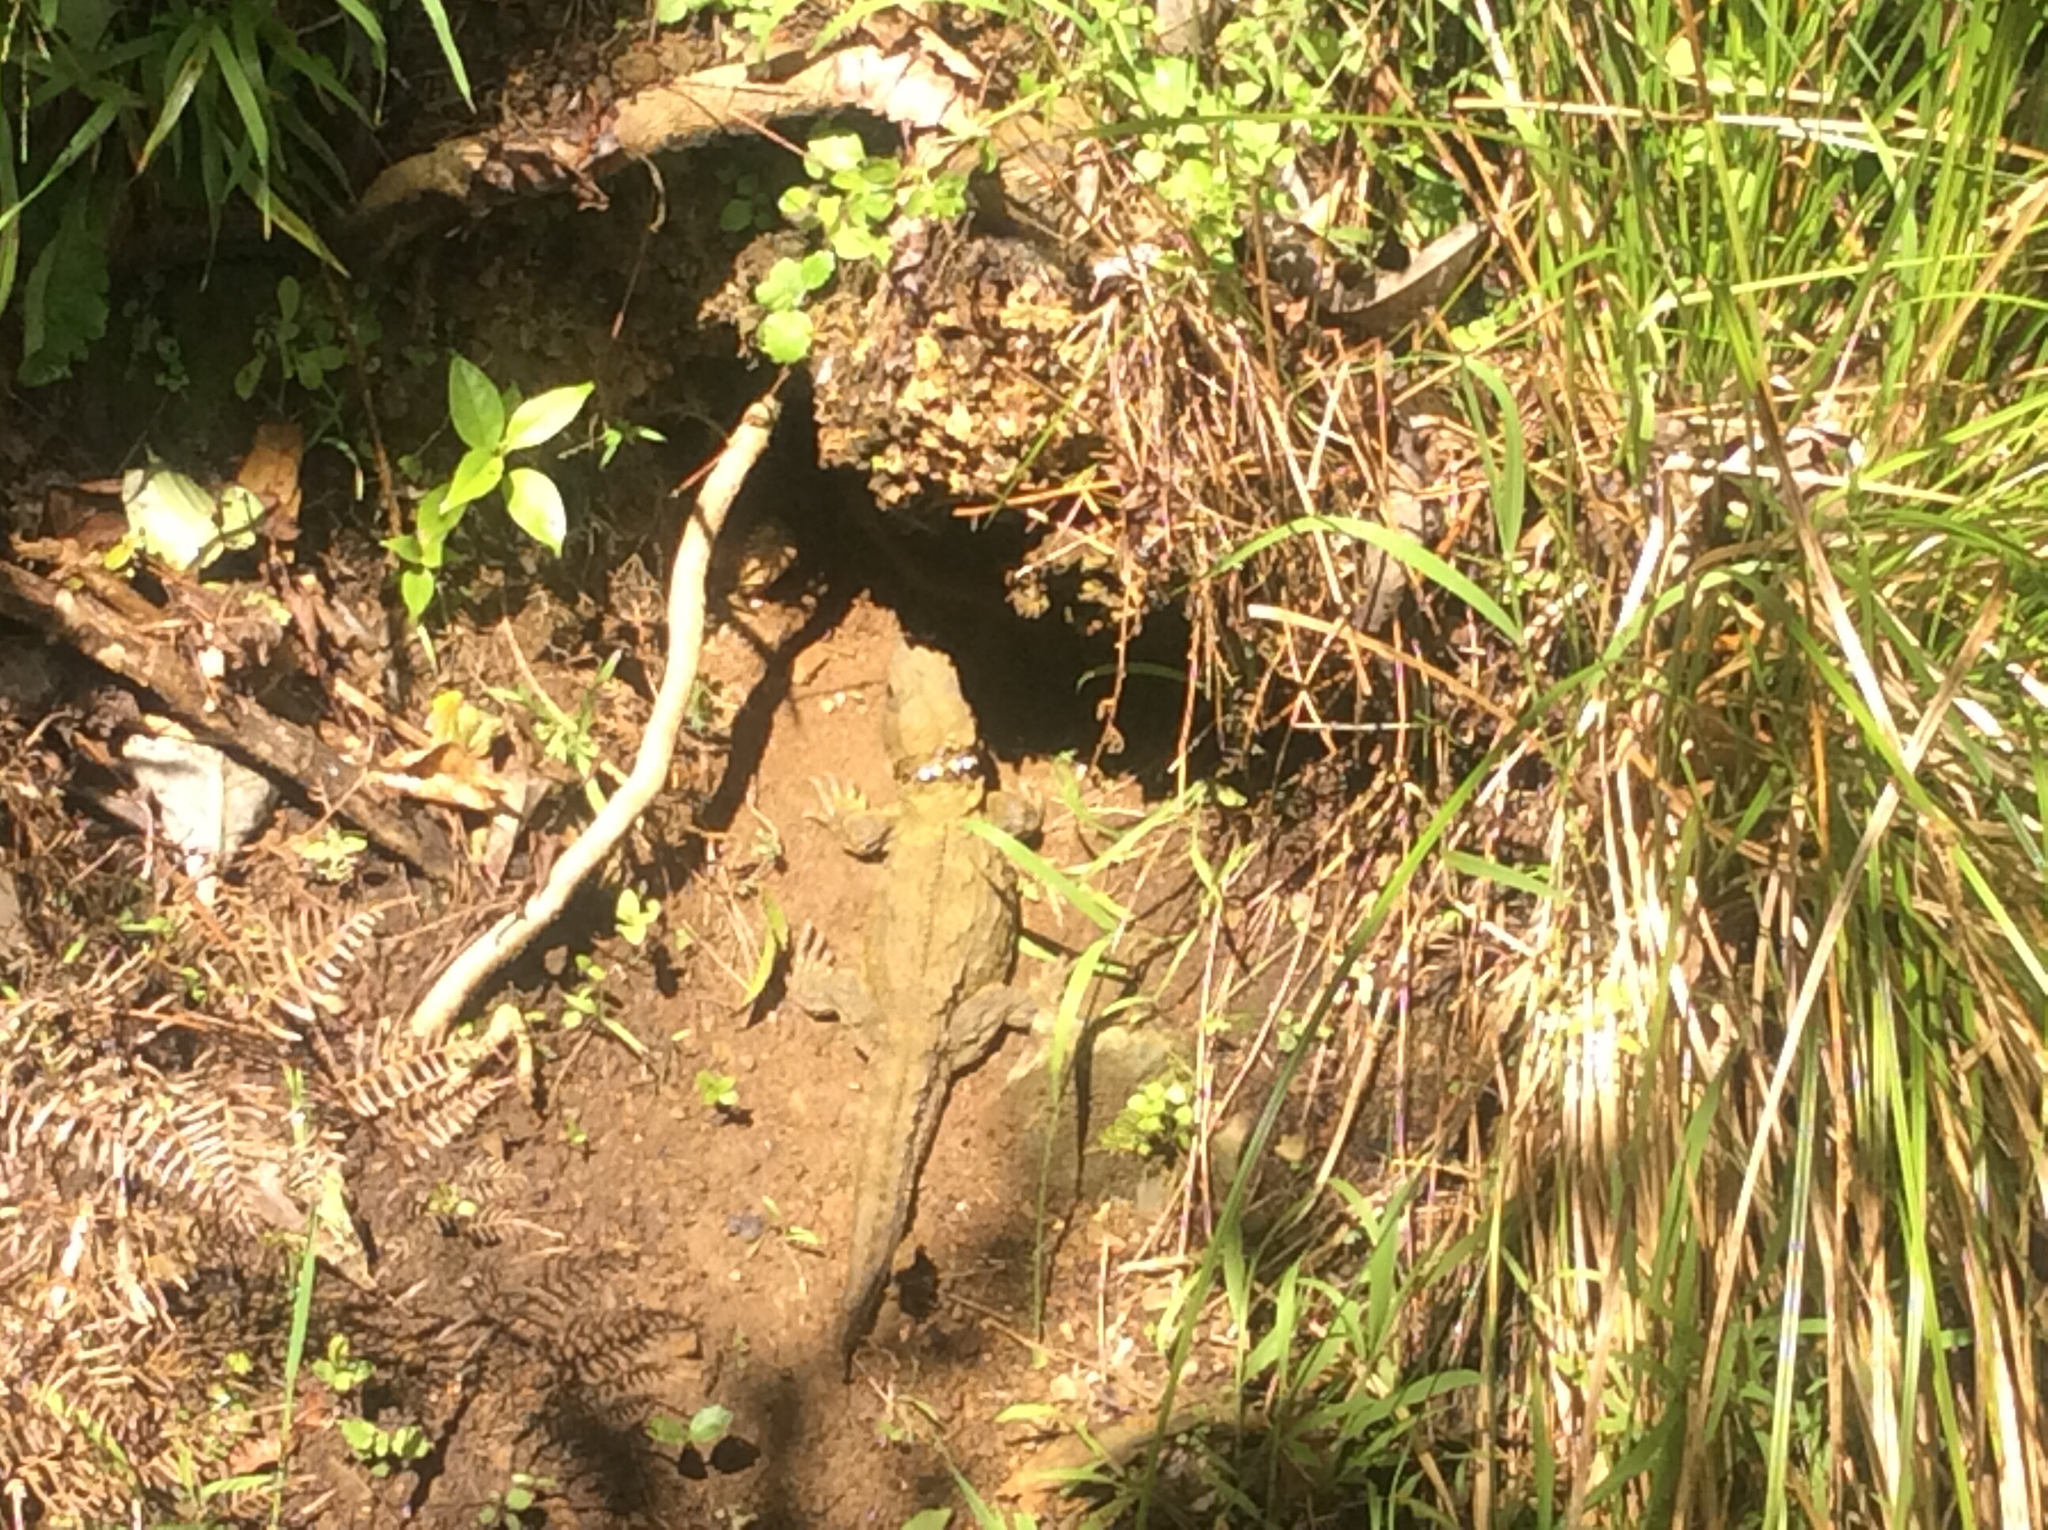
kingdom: Animalia
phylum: Chordata
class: Sphenodontia
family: Sphenodontidae
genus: Sphenodon
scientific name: Sphenodon punctatus
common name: Tuatara
